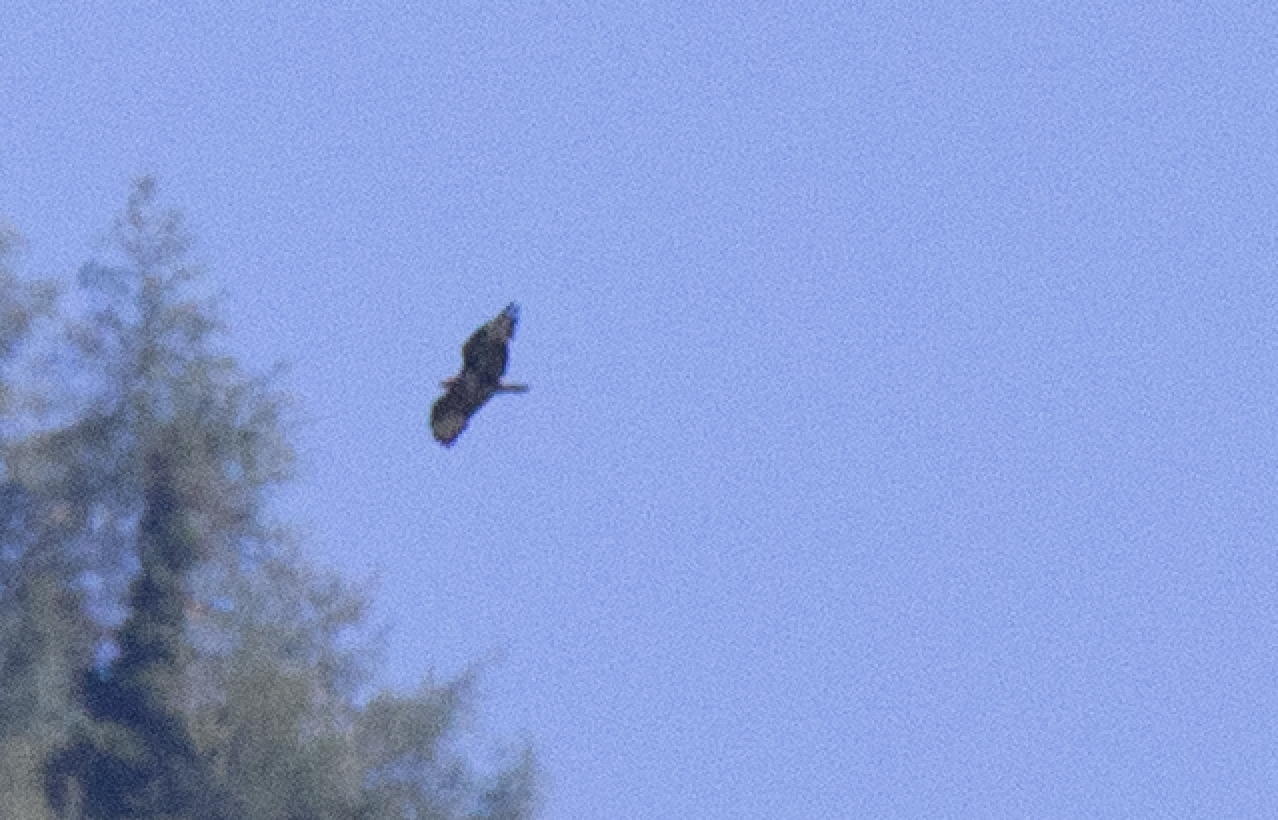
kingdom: Animalia
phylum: Chordata
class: Aves
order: Accipitriformes
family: Accipitridae
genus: Buteo
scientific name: Buteo buteo
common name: Common buzzard
